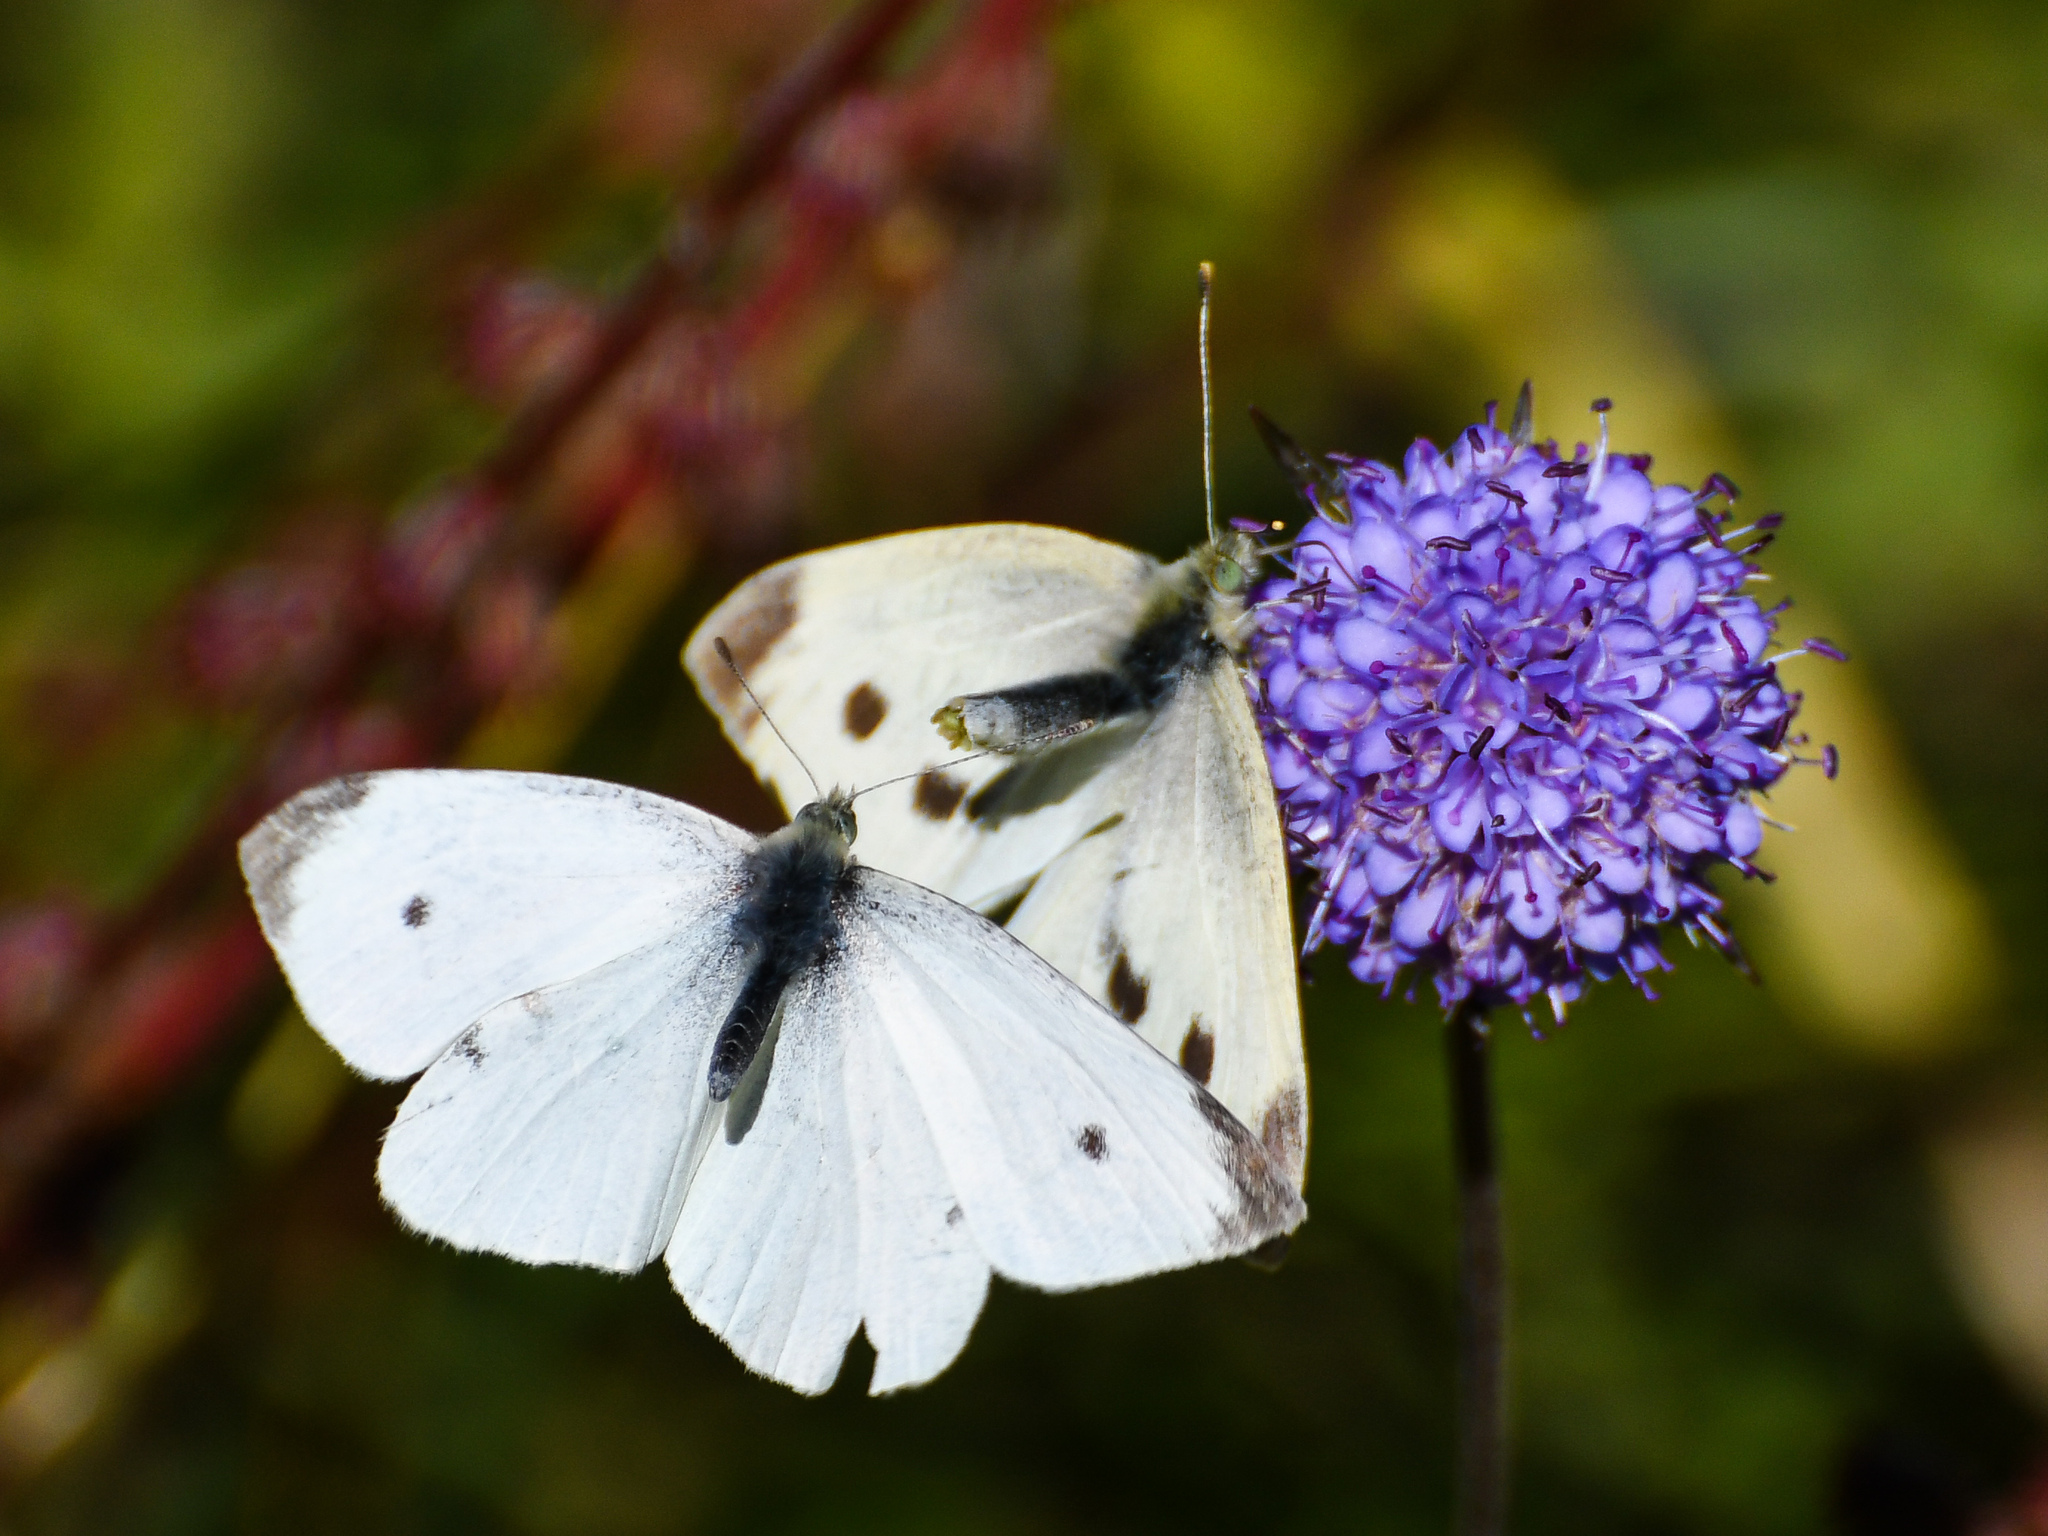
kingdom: Animalia
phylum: Arthropoda
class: Insecta
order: Lepidoptera
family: Pieridae
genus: Pieris
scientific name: Pieris rapae
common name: Small white
